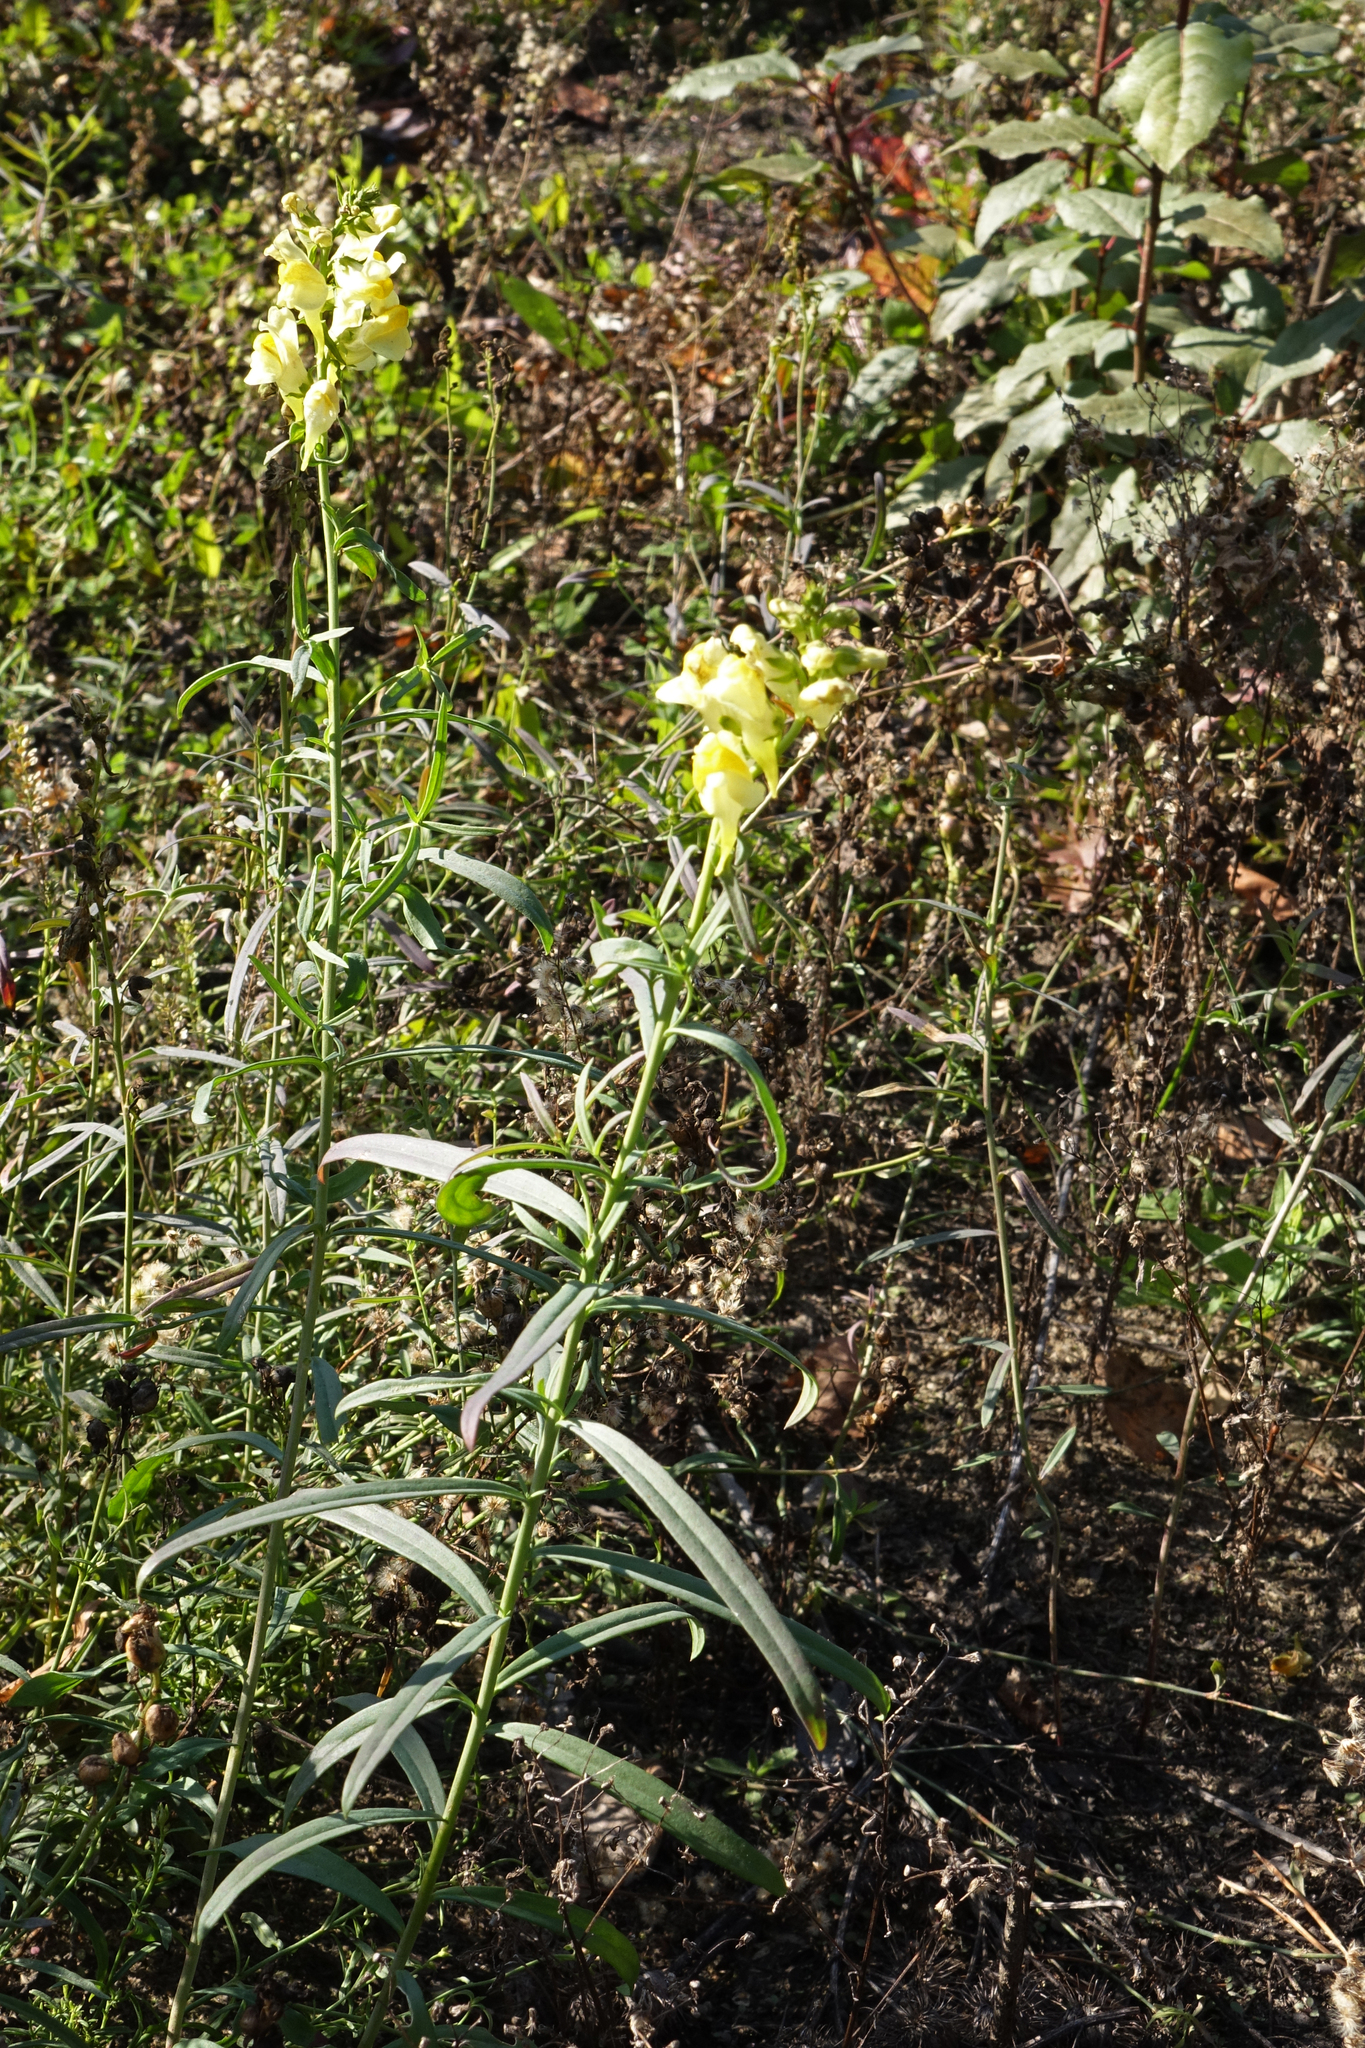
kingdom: Plantae
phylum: Tracheophyta
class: Magnoliopsida
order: Lamiales
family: Plantaginaceae
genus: Linaria
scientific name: Linaria vulgaris
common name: Butter and eggs
